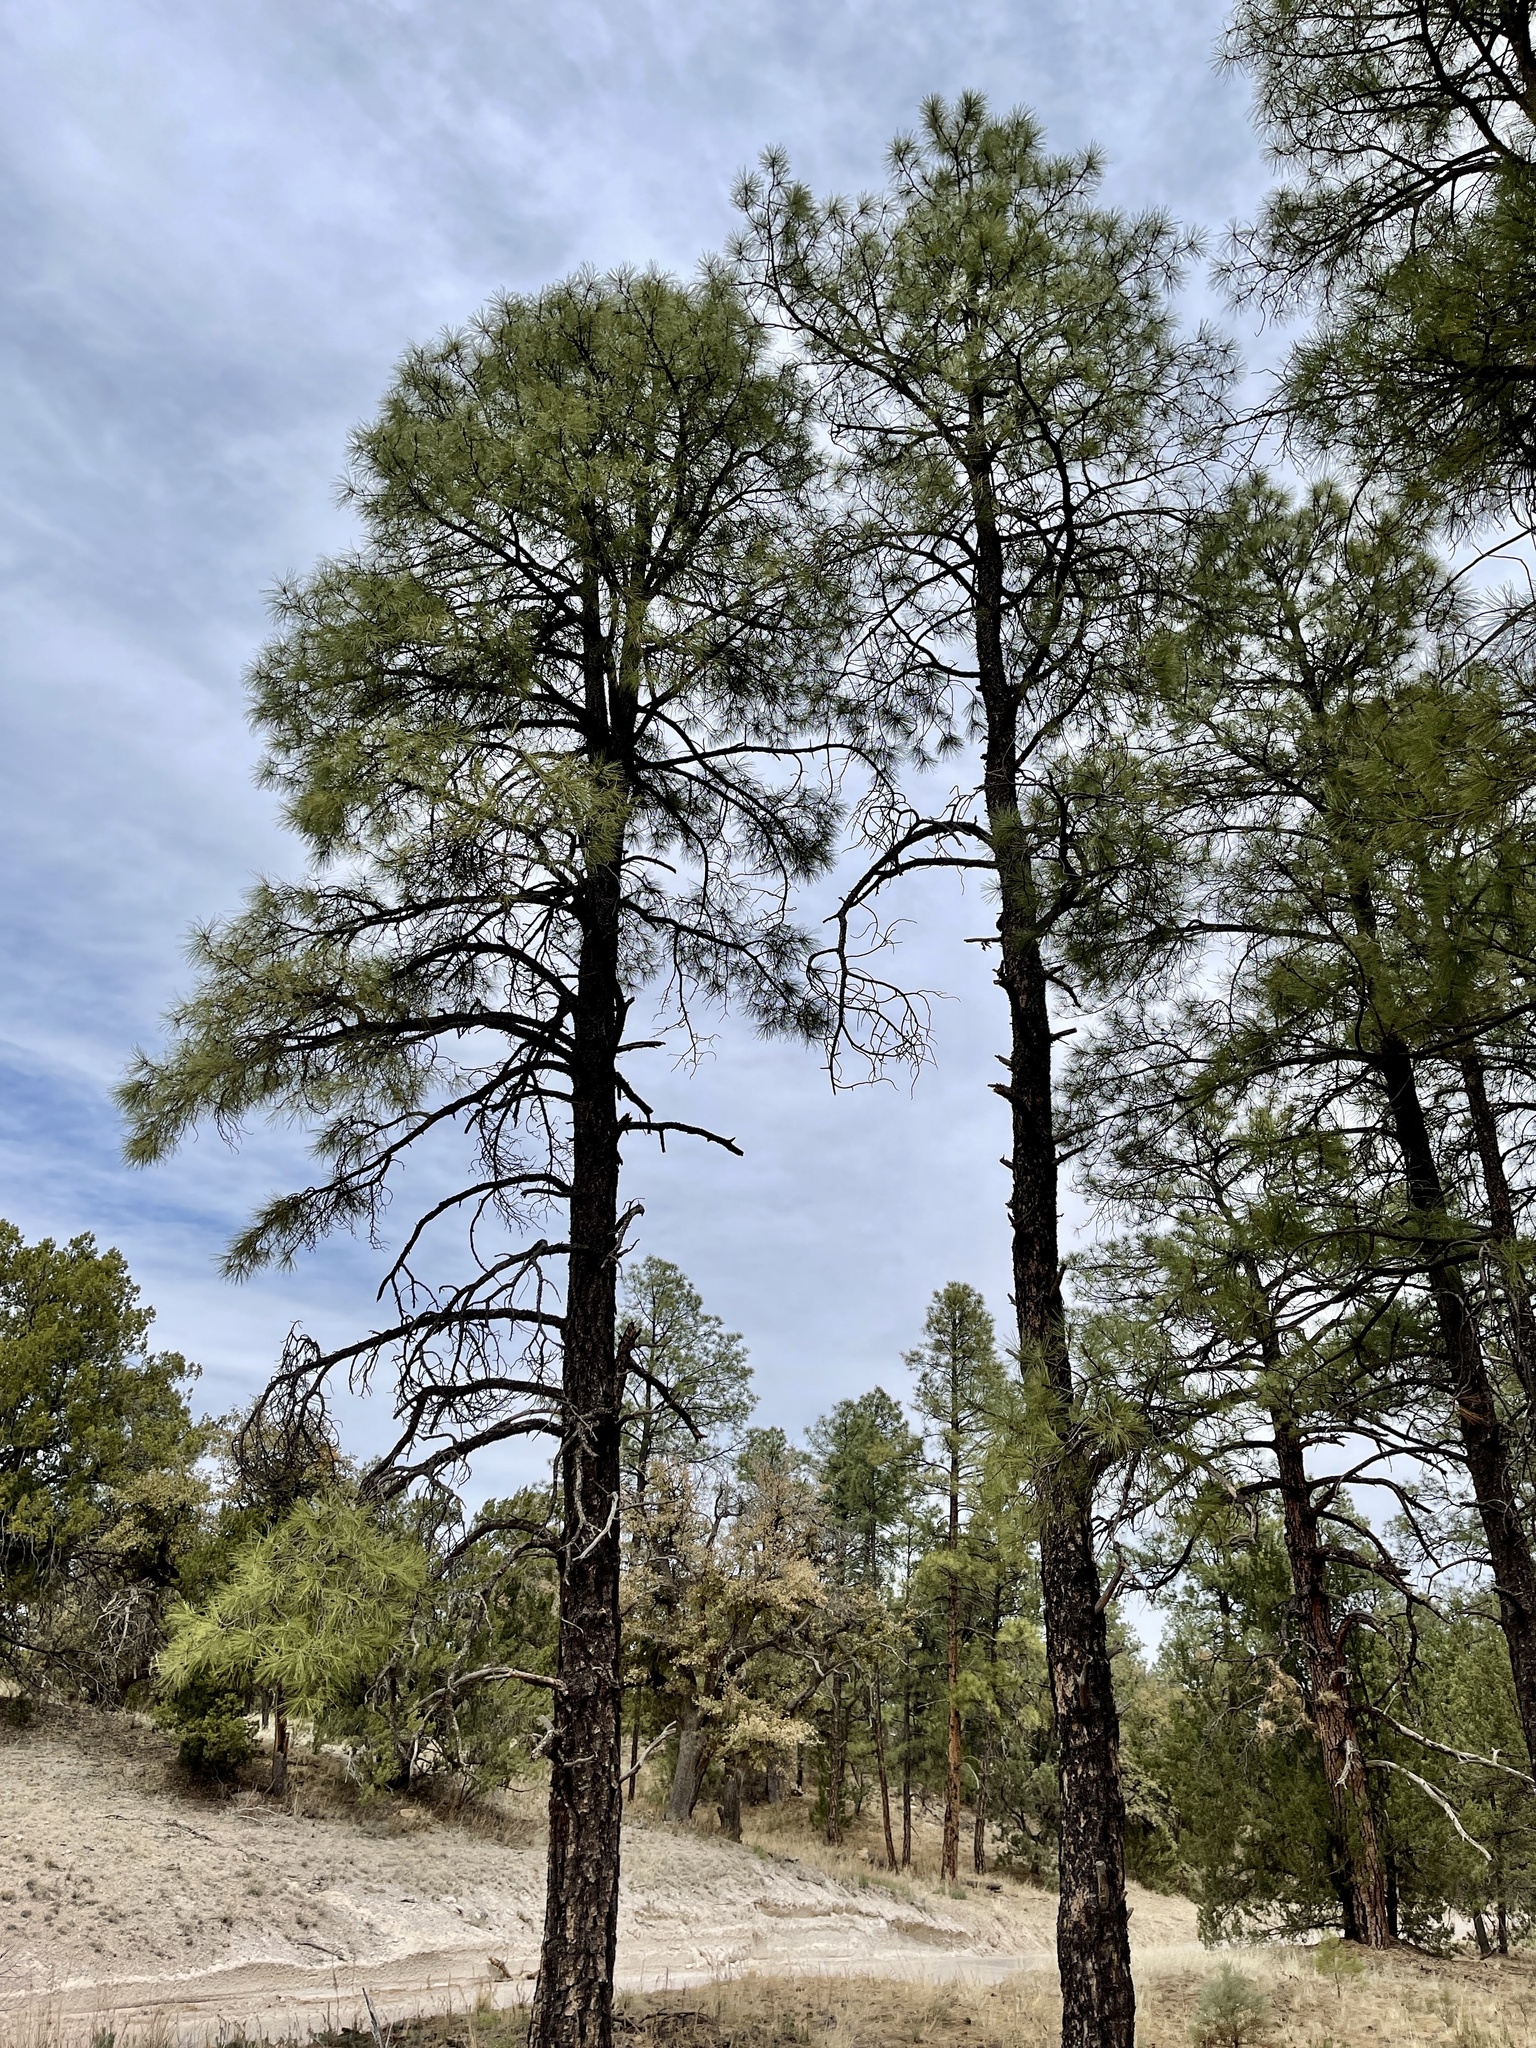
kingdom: Plantae
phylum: Tracheophyta
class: Pinopsida
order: Pinales
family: Pinaceae
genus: Pinus
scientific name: Pinus ponderosa
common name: Western yellow-pine
